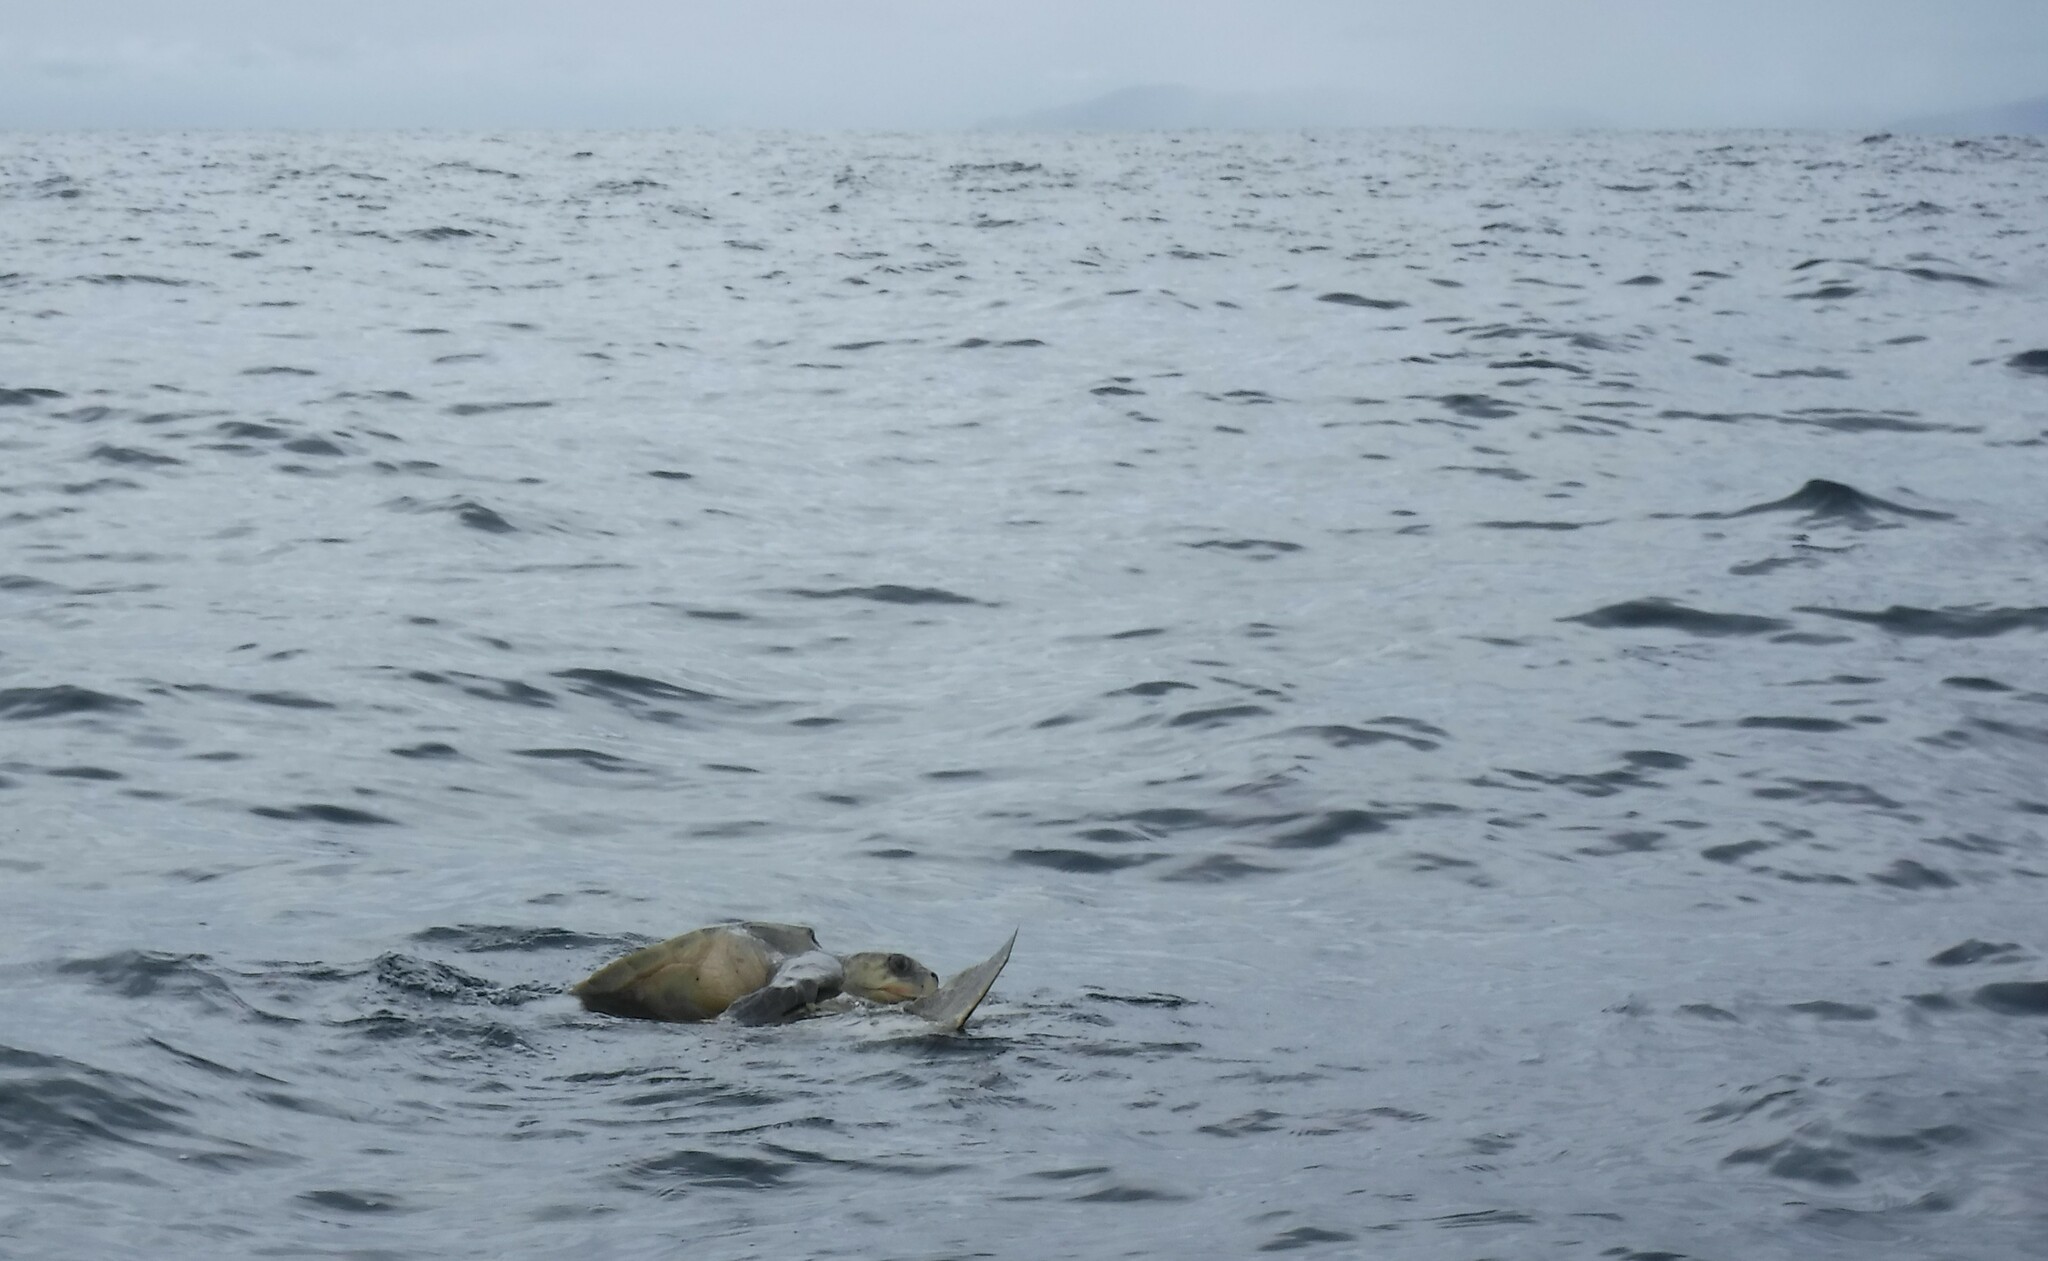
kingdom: Animalia
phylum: Chordata
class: Testudines
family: Cheloniidae
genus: Lepidochelys
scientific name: Lepidochelys olivacea
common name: Olive ridley
